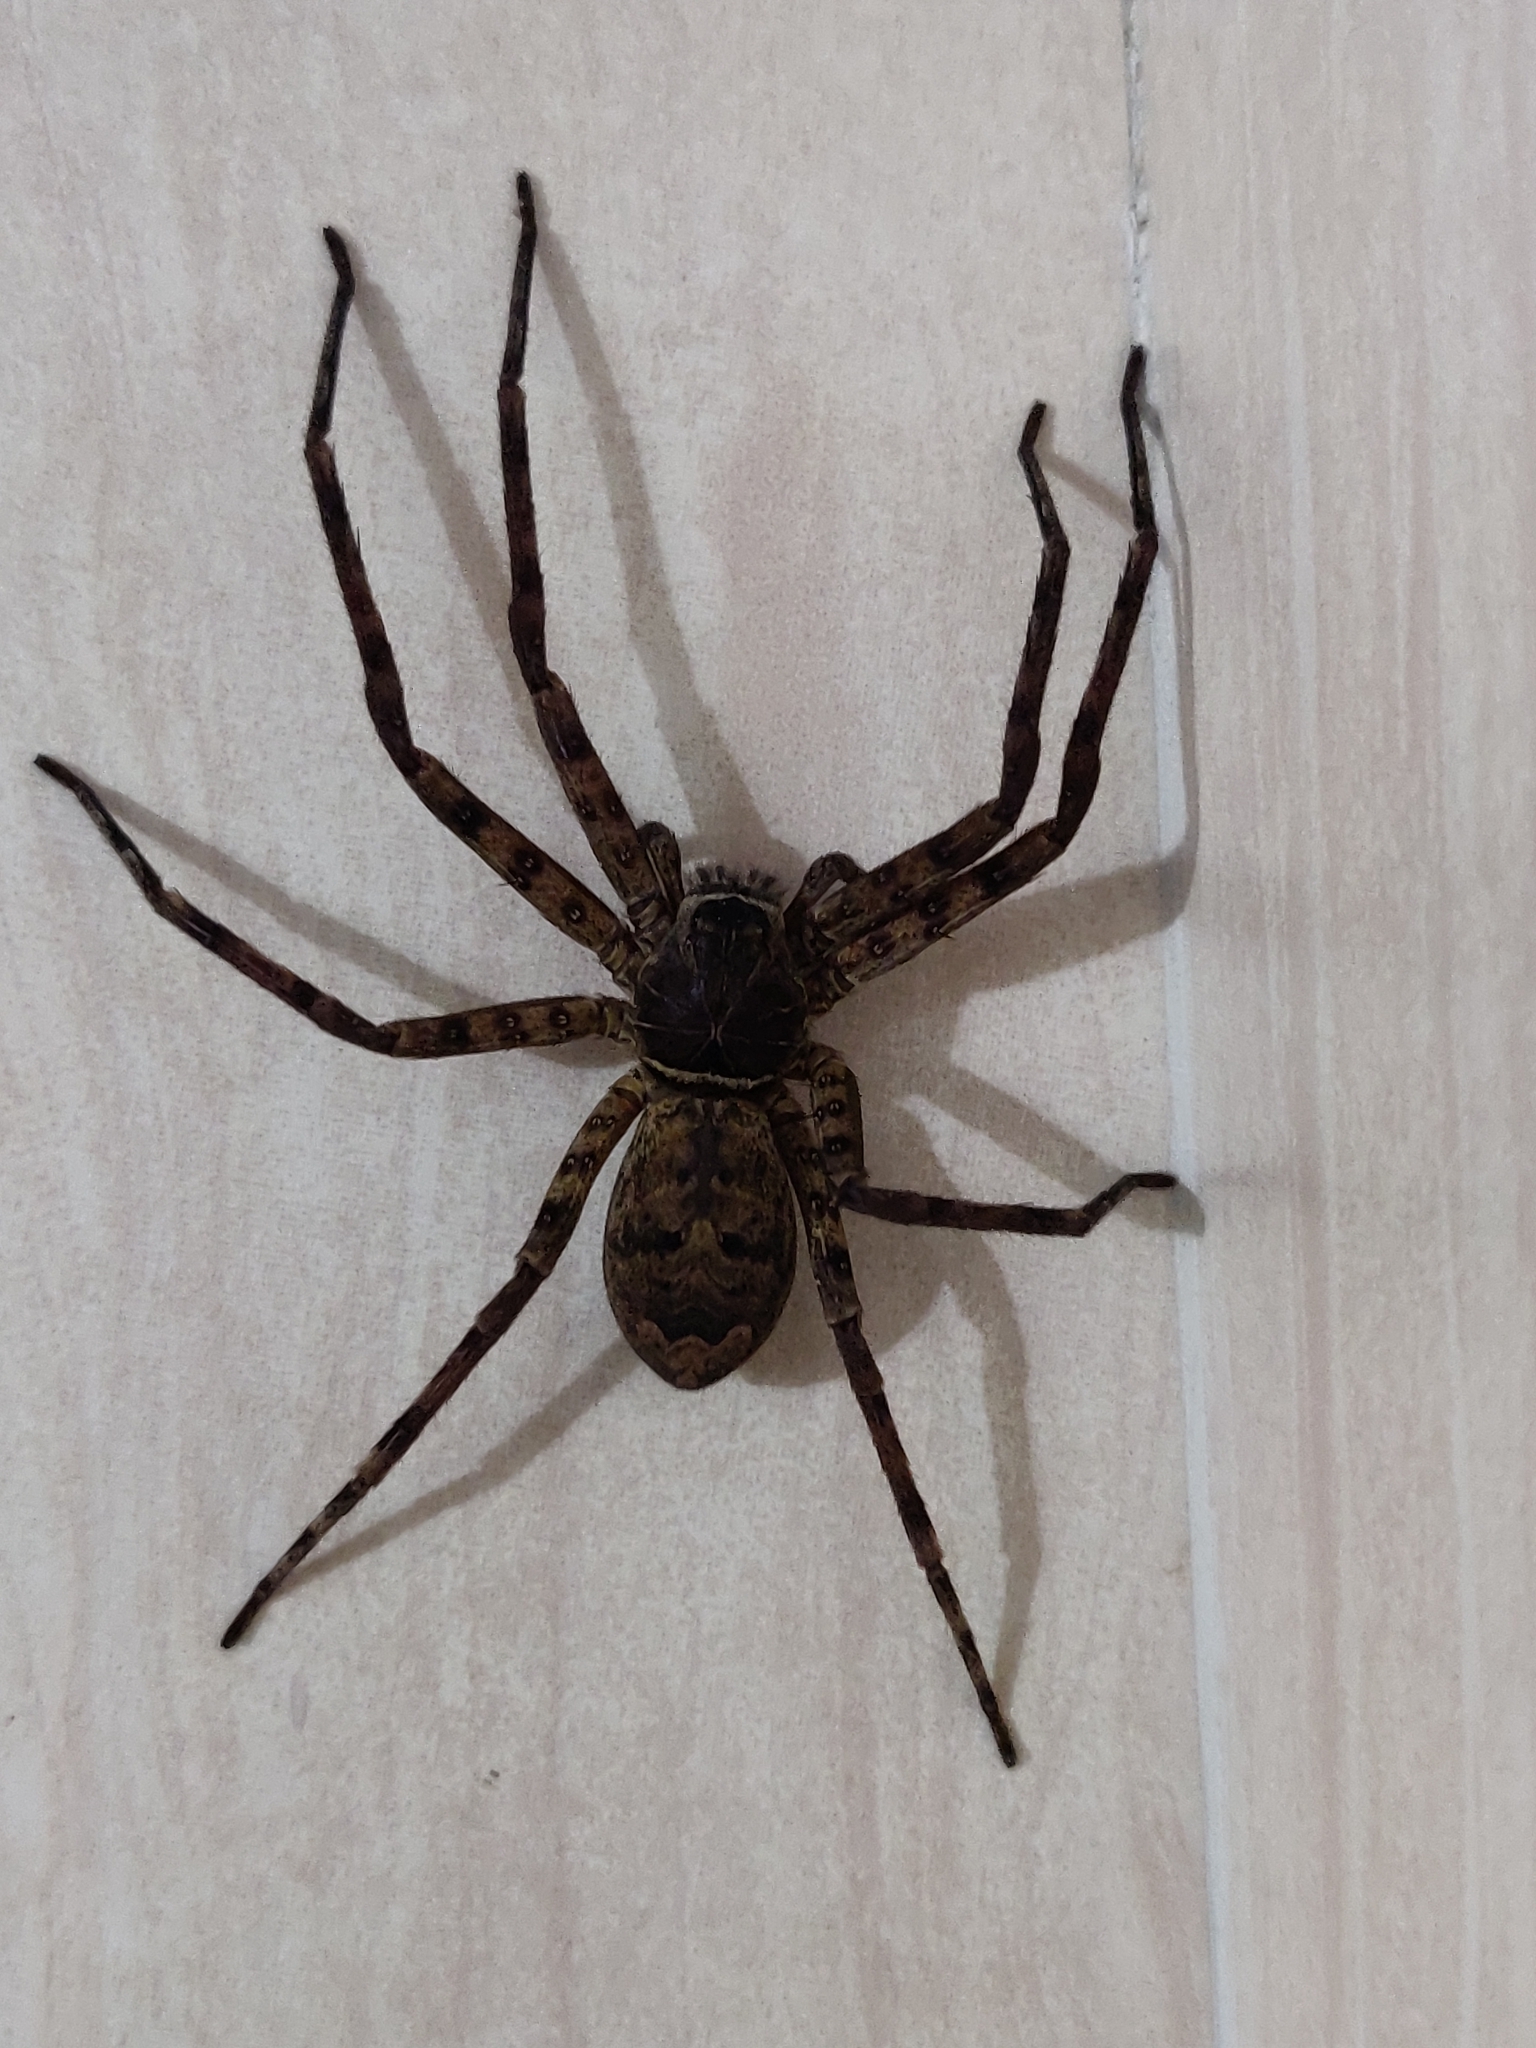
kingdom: Animalia
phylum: Arthropoda
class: Arachnida
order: Araneae
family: Sparassidae
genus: Heteropoda
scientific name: Heteropoda venatoria
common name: Huntsman spider
